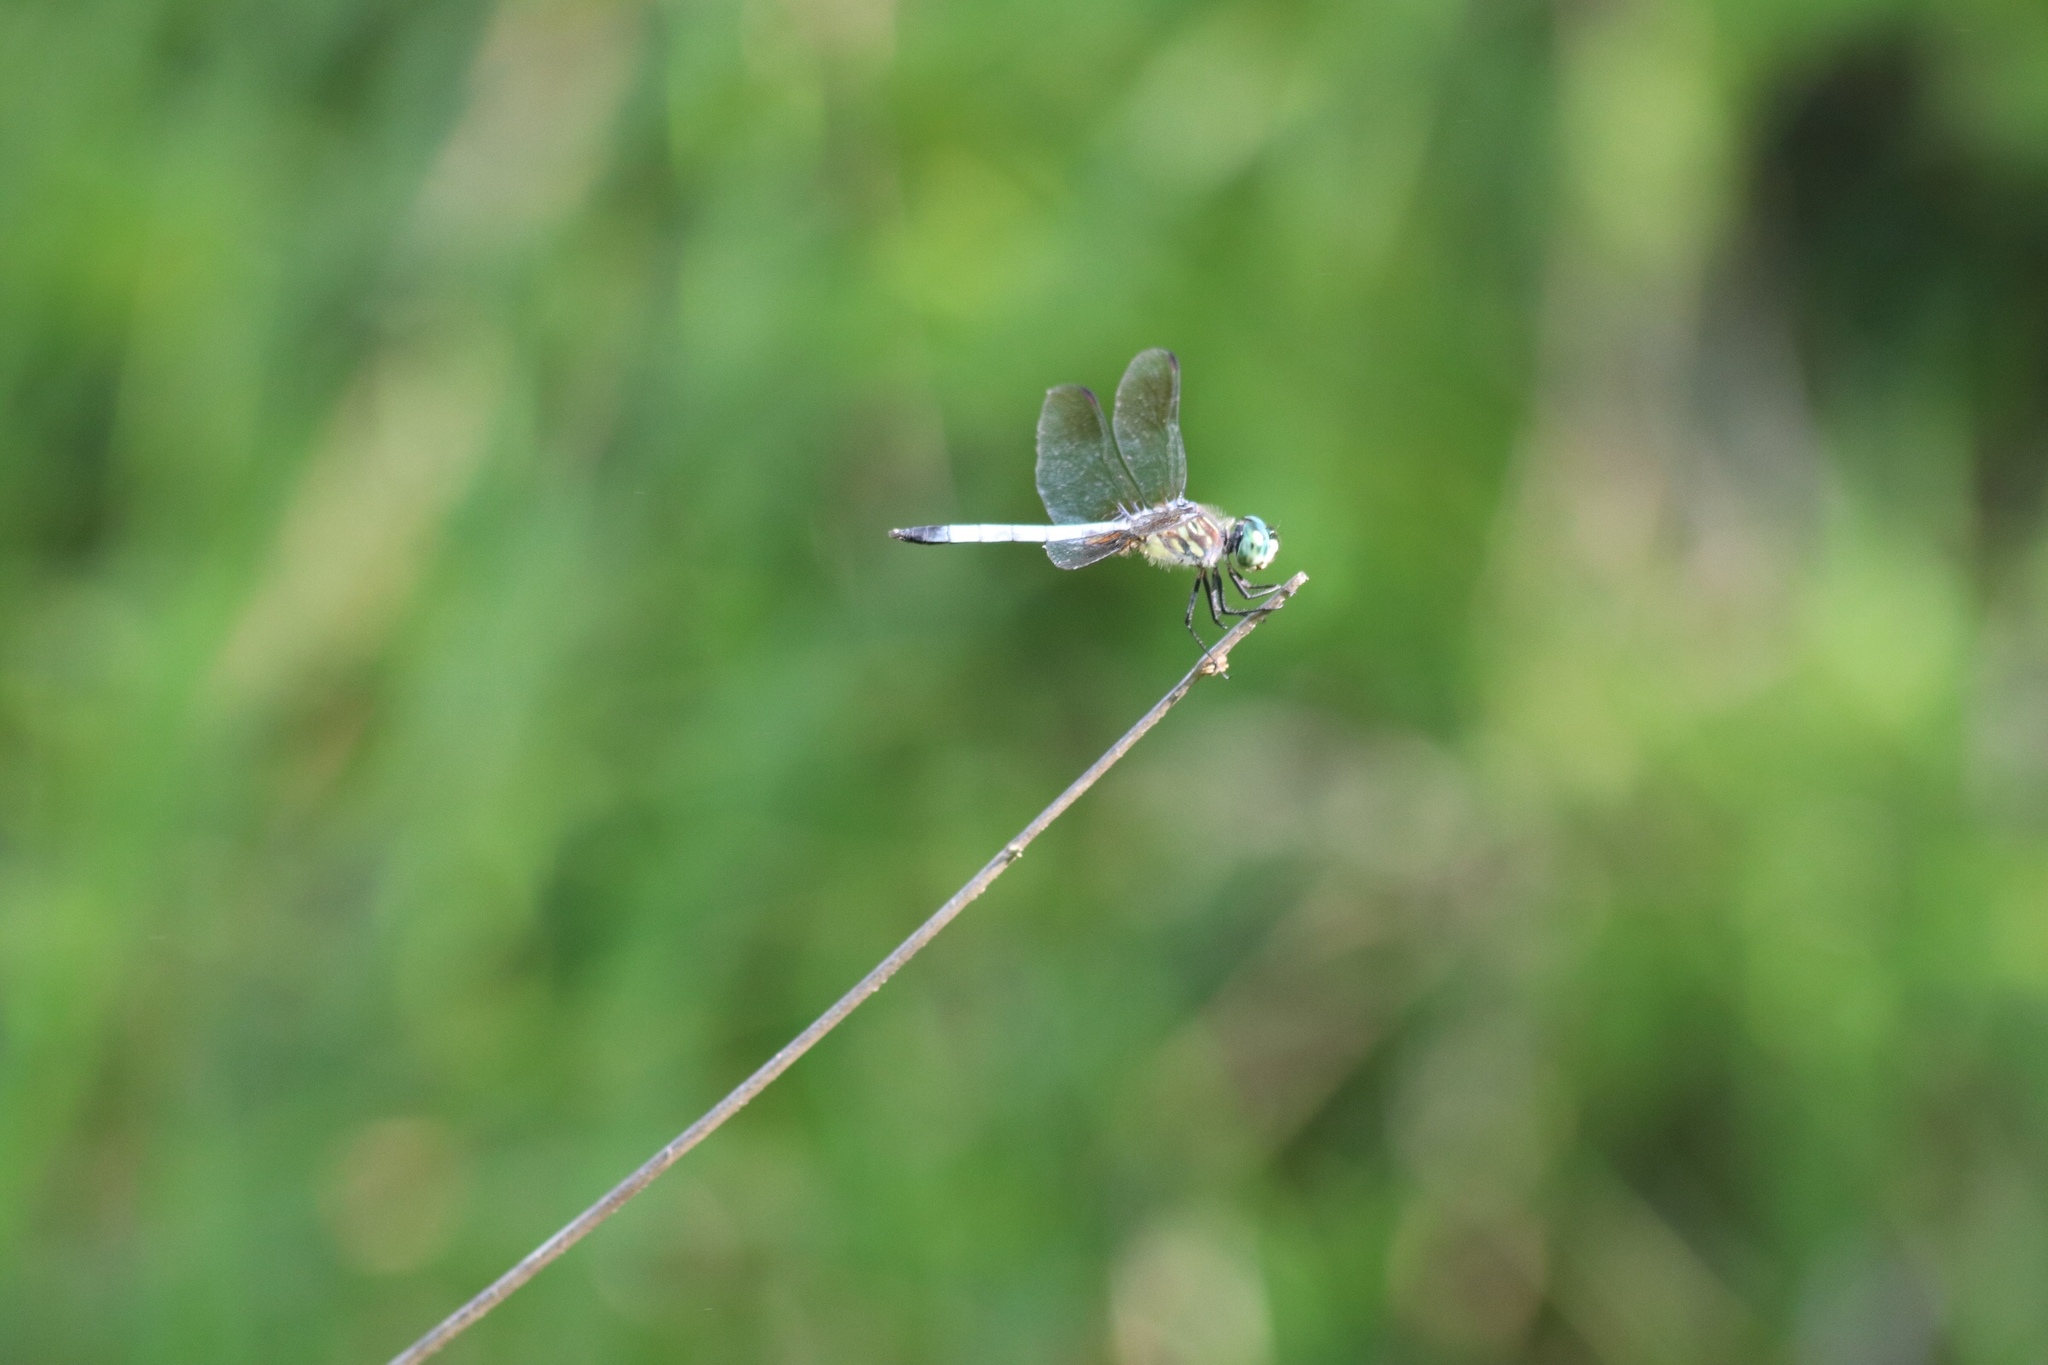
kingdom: Animalia
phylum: Arthropoda
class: Insecta
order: Odonata
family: Libellulidae
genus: Pachydiplax
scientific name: Pachydiplax longipennis
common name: Blue dasher
